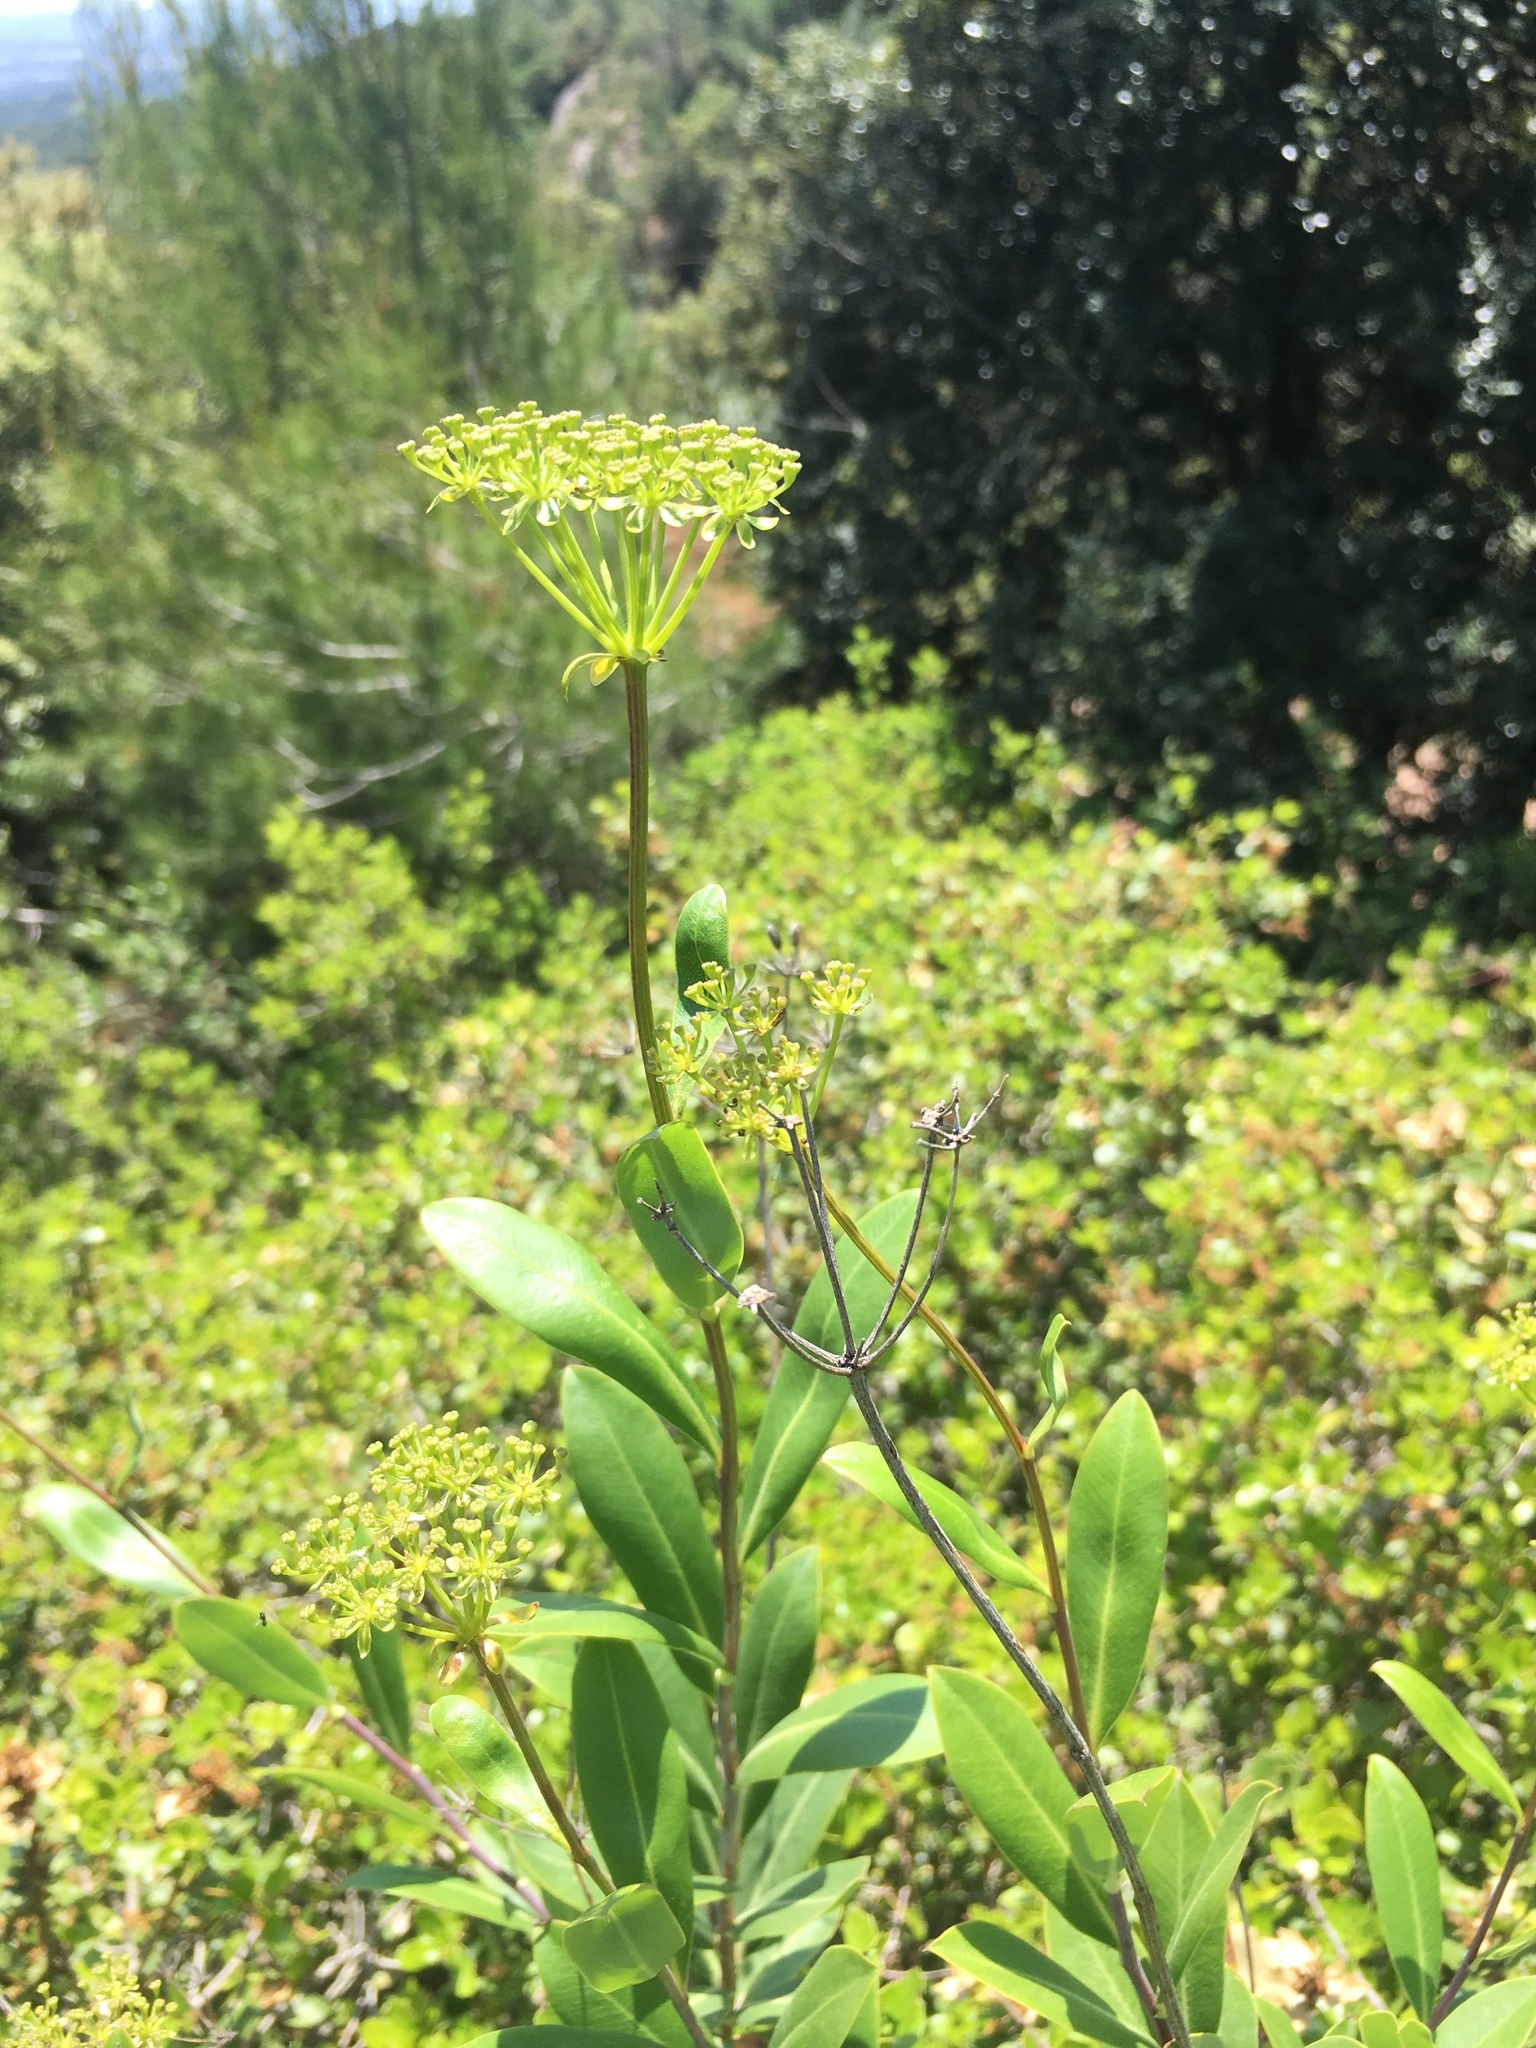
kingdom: Plantae
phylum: Tracheophyta
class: Magnoliopsida
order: Apiales
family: Apiaceae
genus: Bupleurum
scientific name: Bupleurum fruticosum
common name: Shrubby hare's-ear
